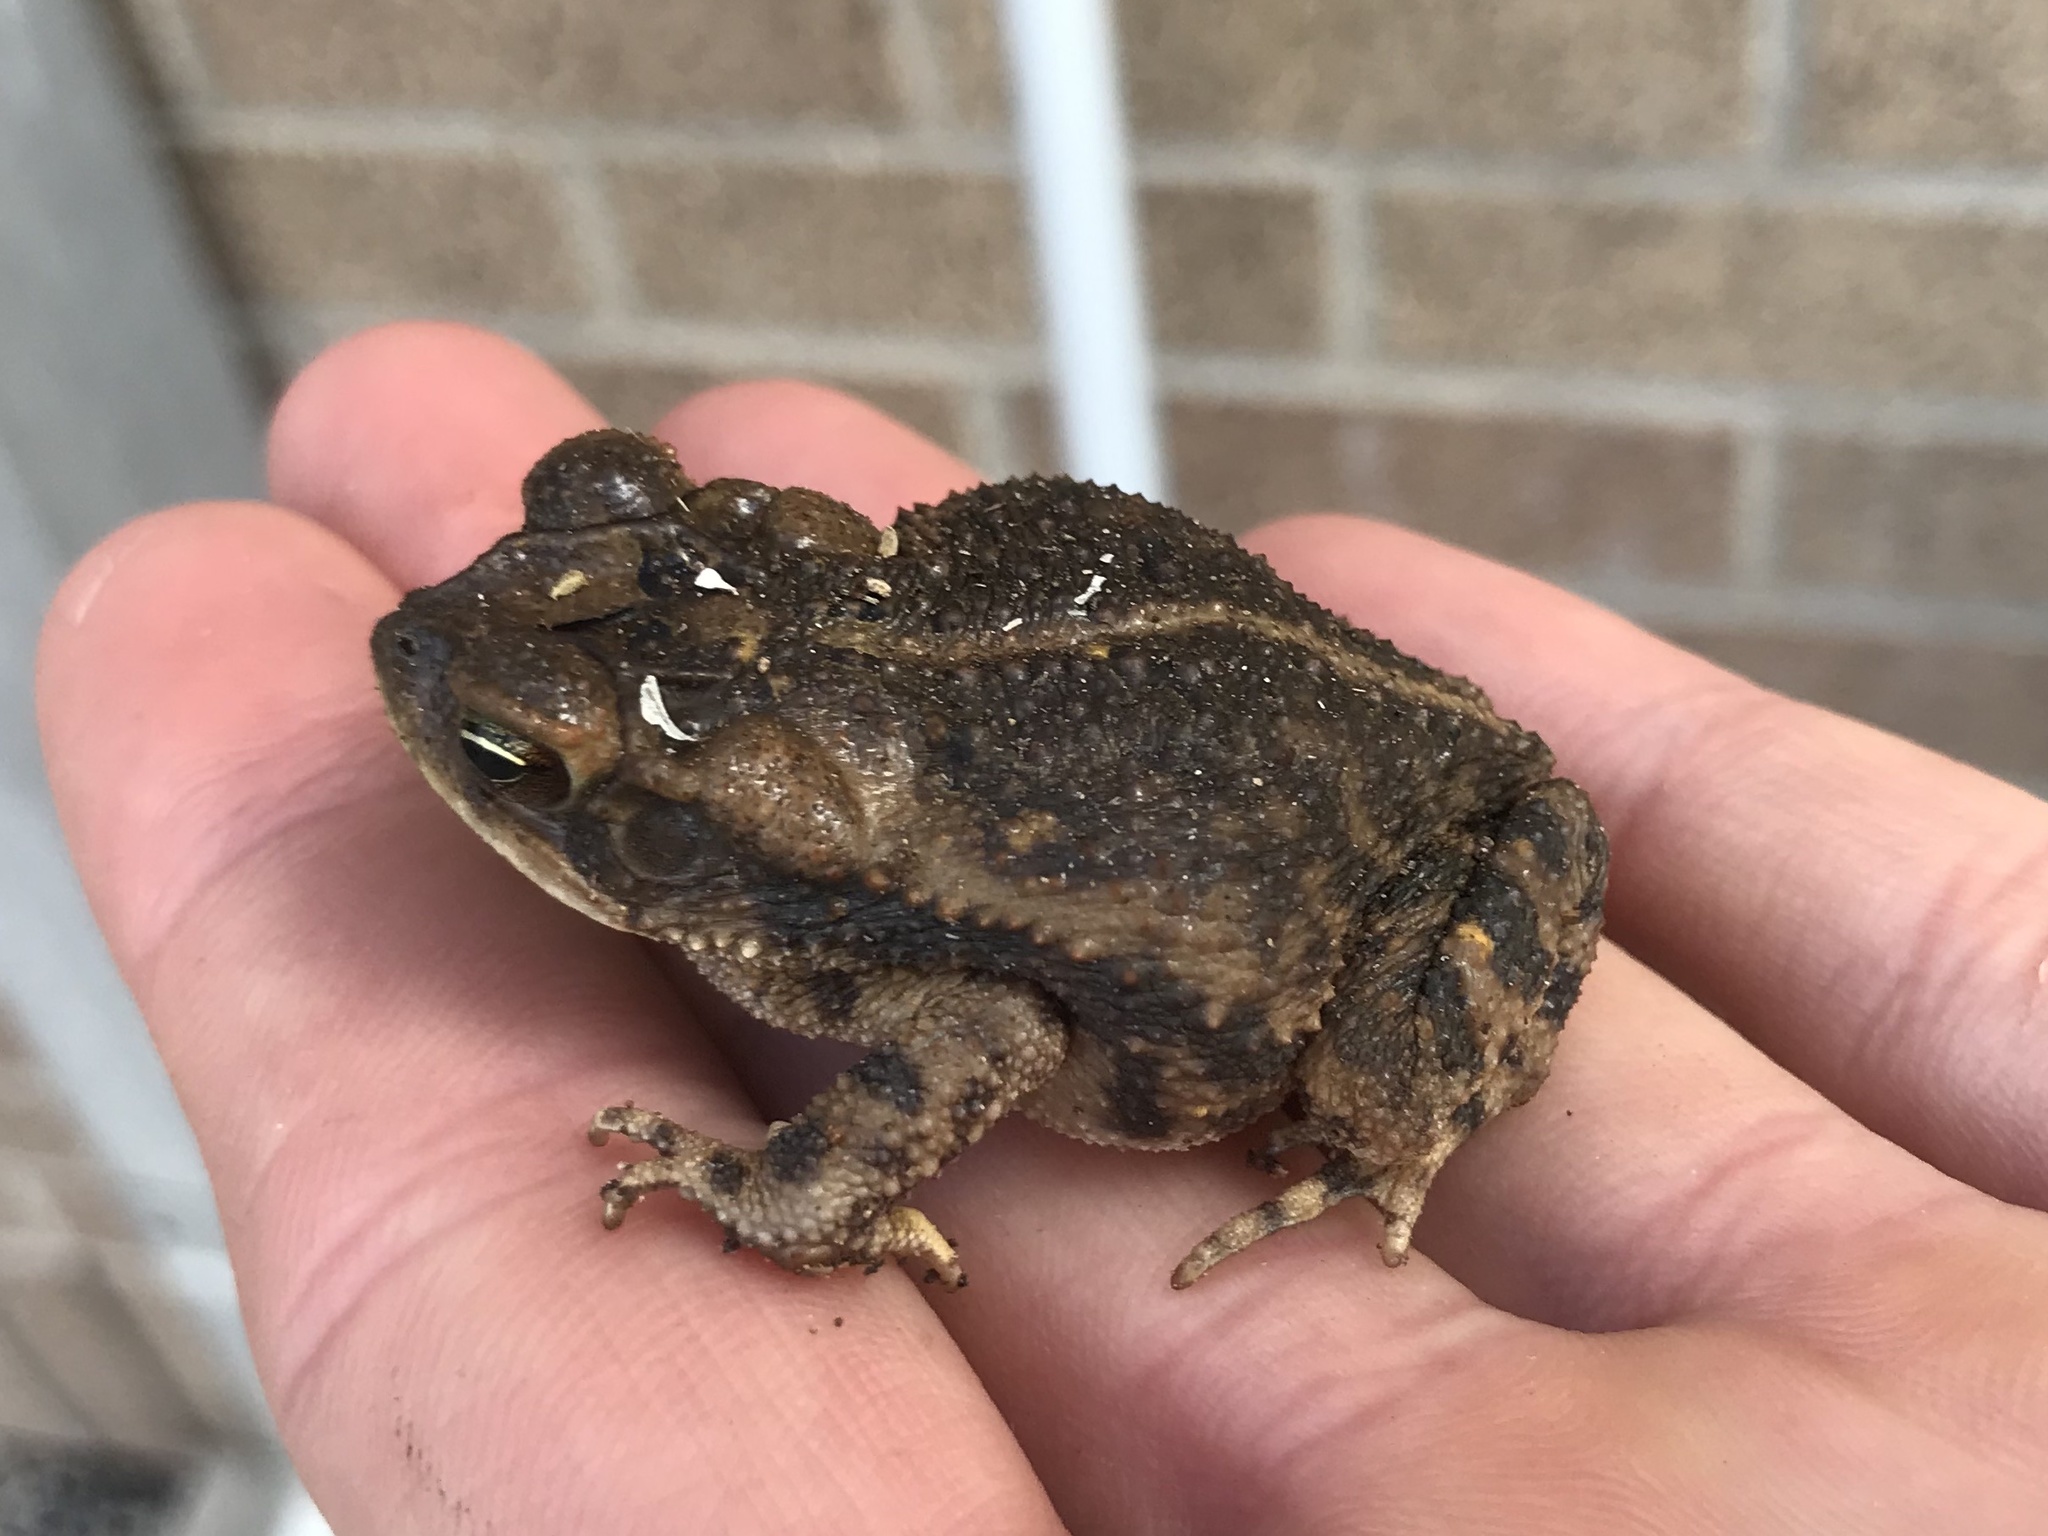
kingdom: Animalia
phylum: Chordata
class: Amphibia
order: Anura
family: Bufonidae
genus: Incilius
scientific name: Incilius nebulifer
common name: Gulf coast toad
